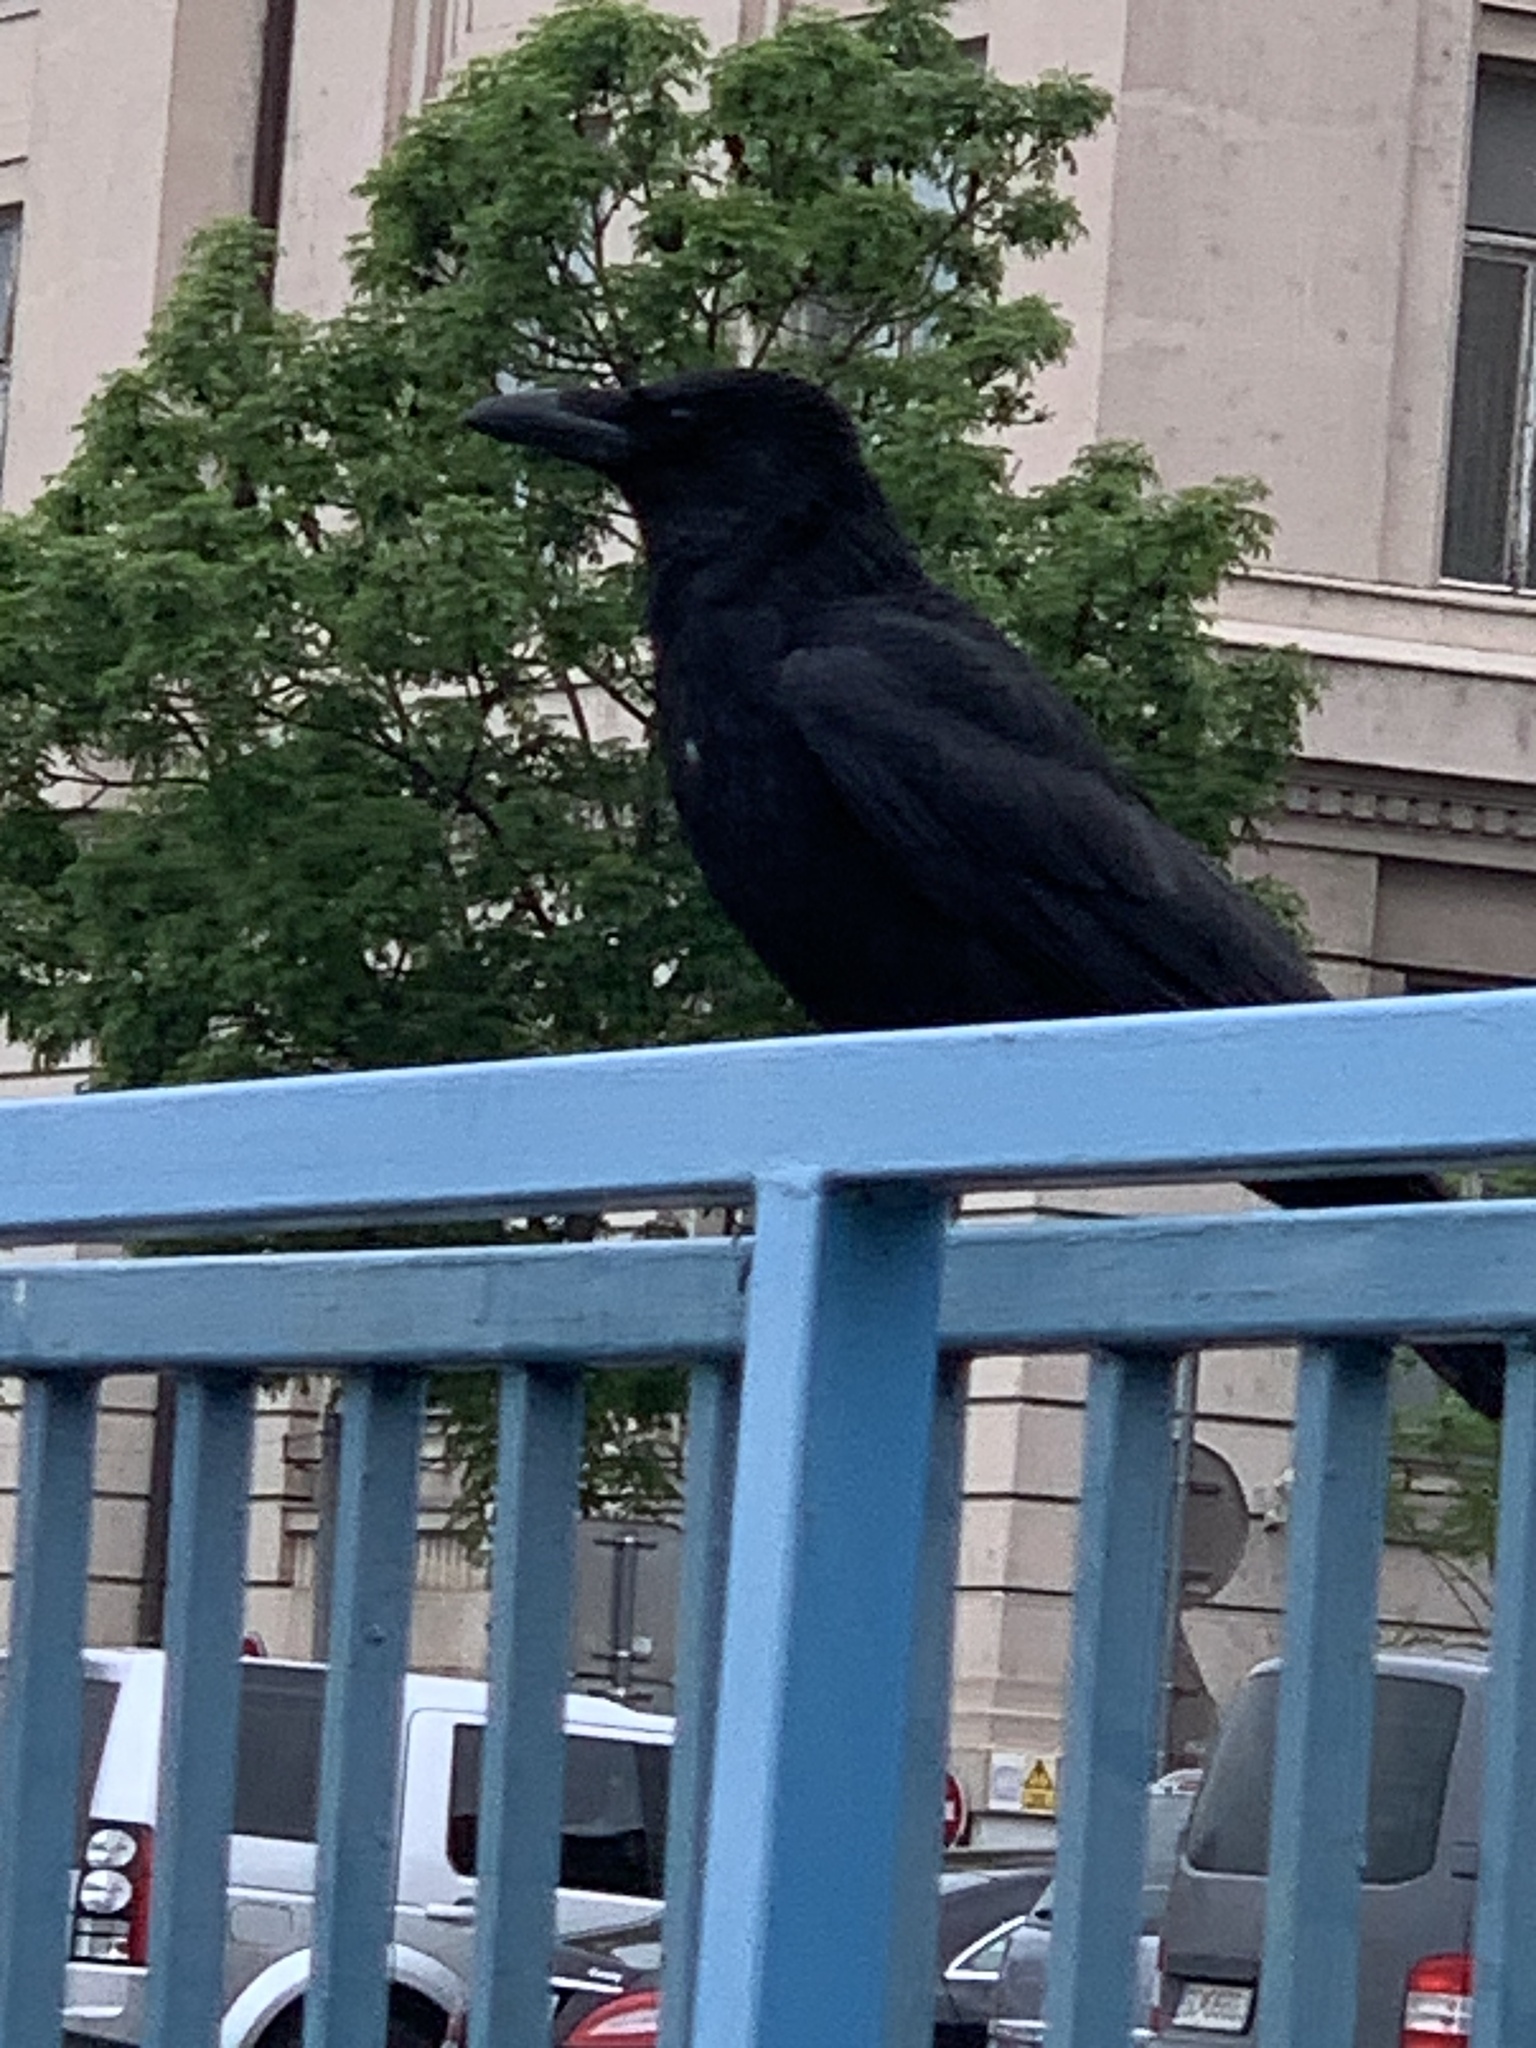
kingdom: Animalia
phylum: Chordata
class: Aves
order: Passeriformes
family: Corvidae
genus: Corvus
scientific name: Corvus corax
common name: Common raven
